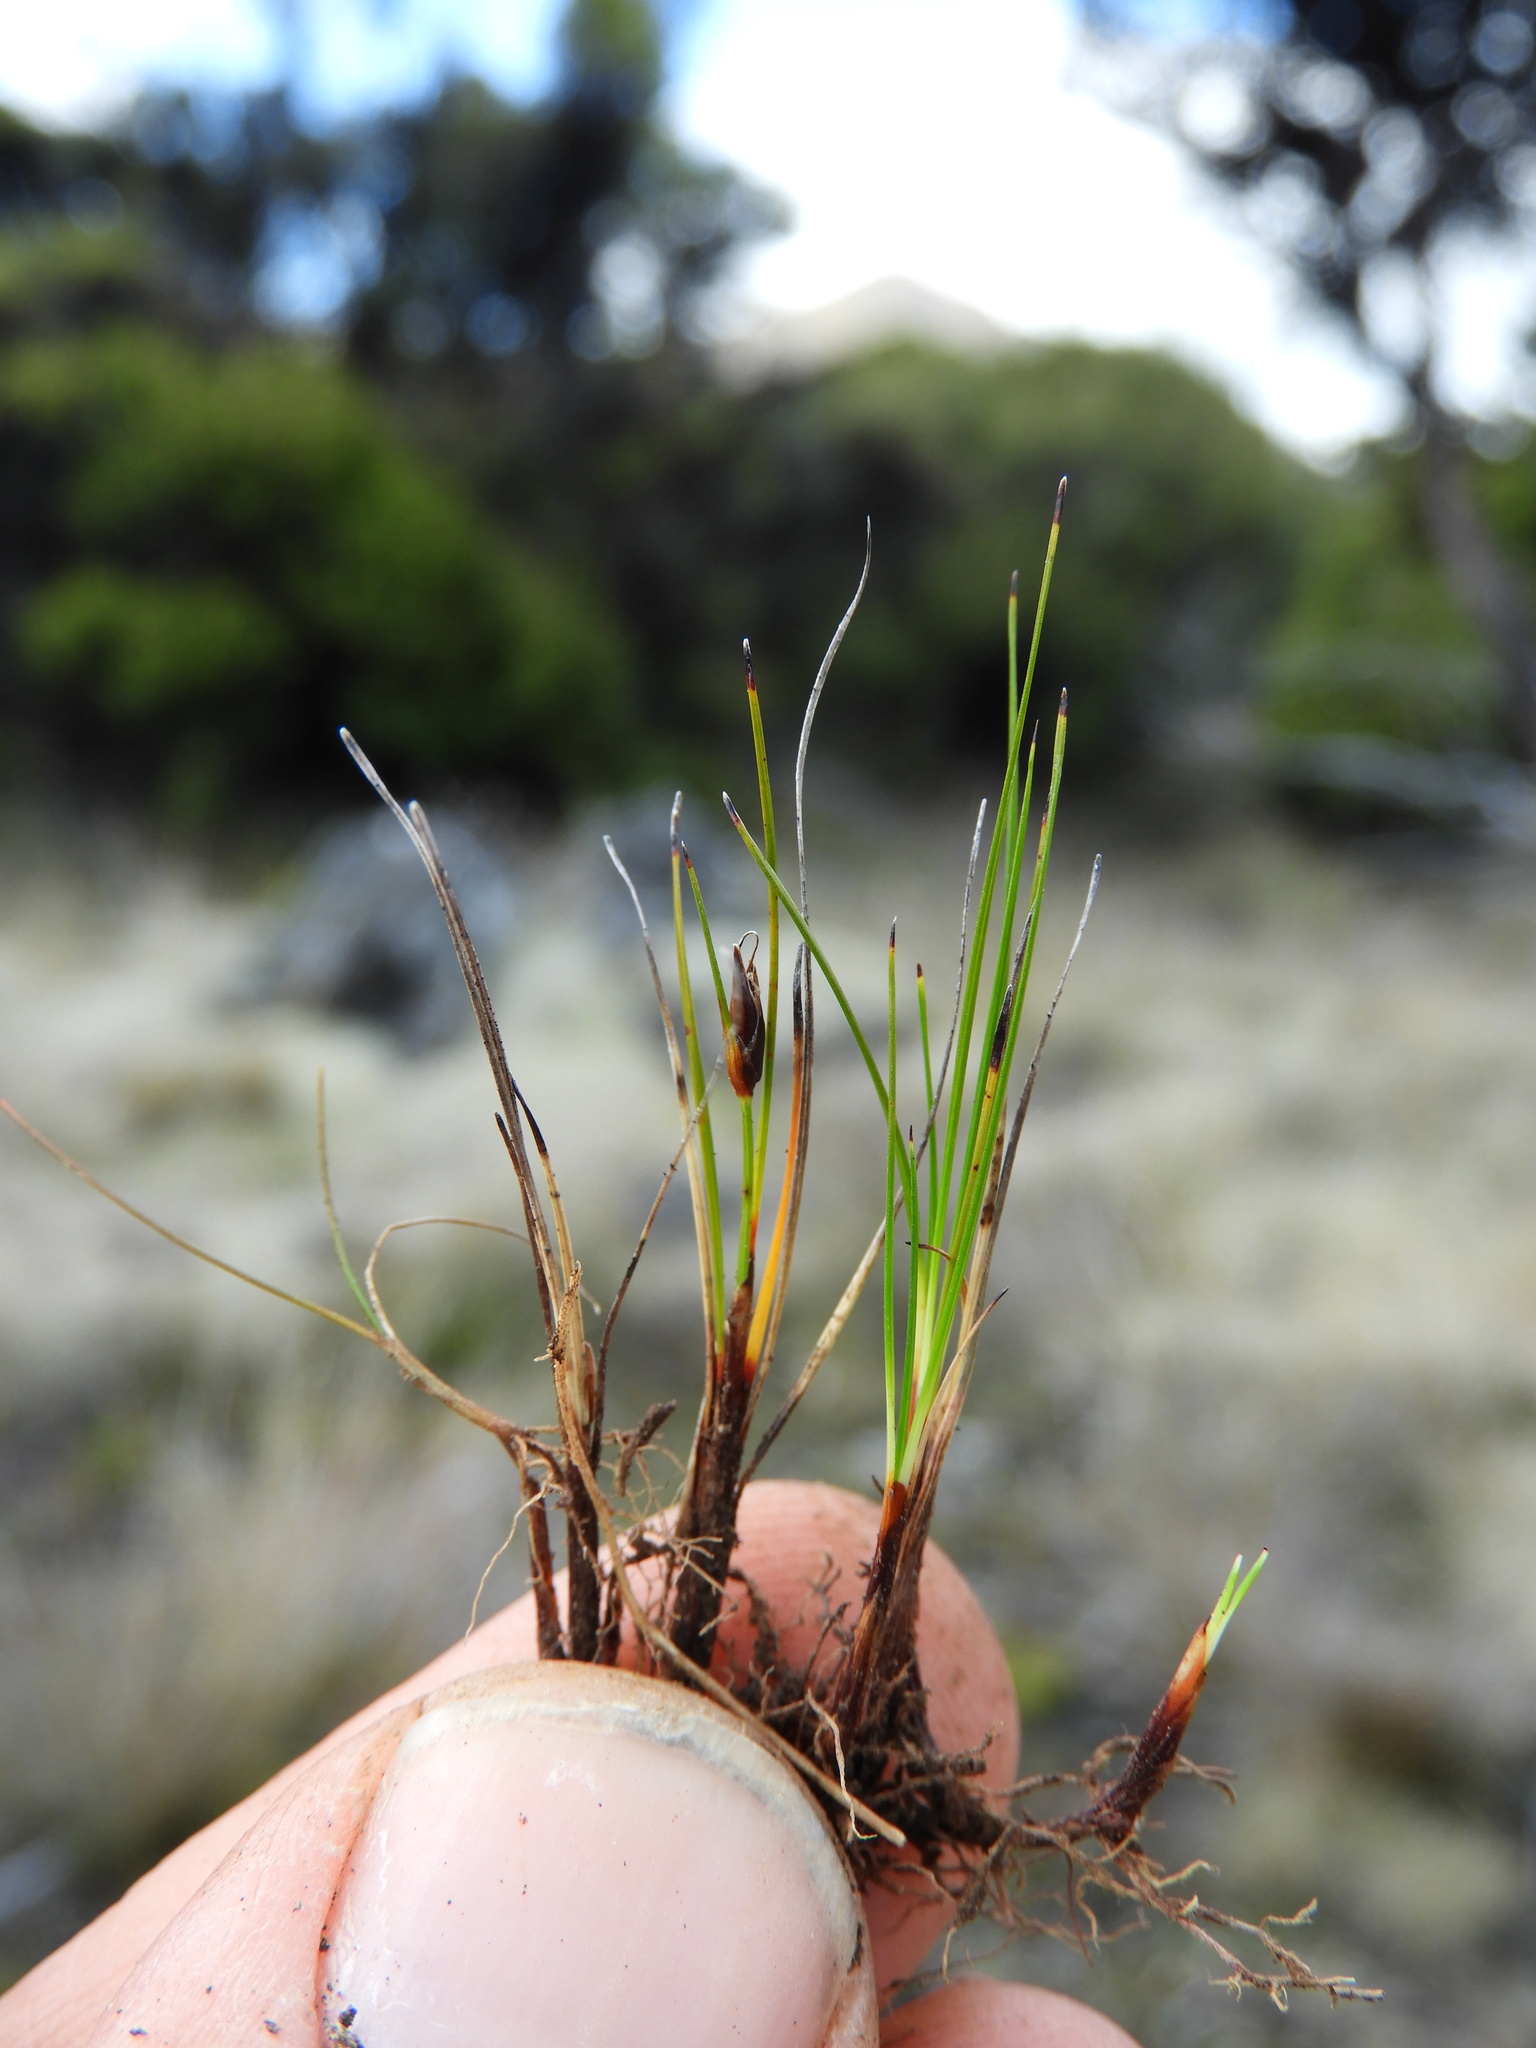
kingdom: Plantae
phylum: Tracheophyta
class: Liliopsida
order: Poales
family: Cyperaceae
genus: Schoenus
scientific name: Schoenus nitens
